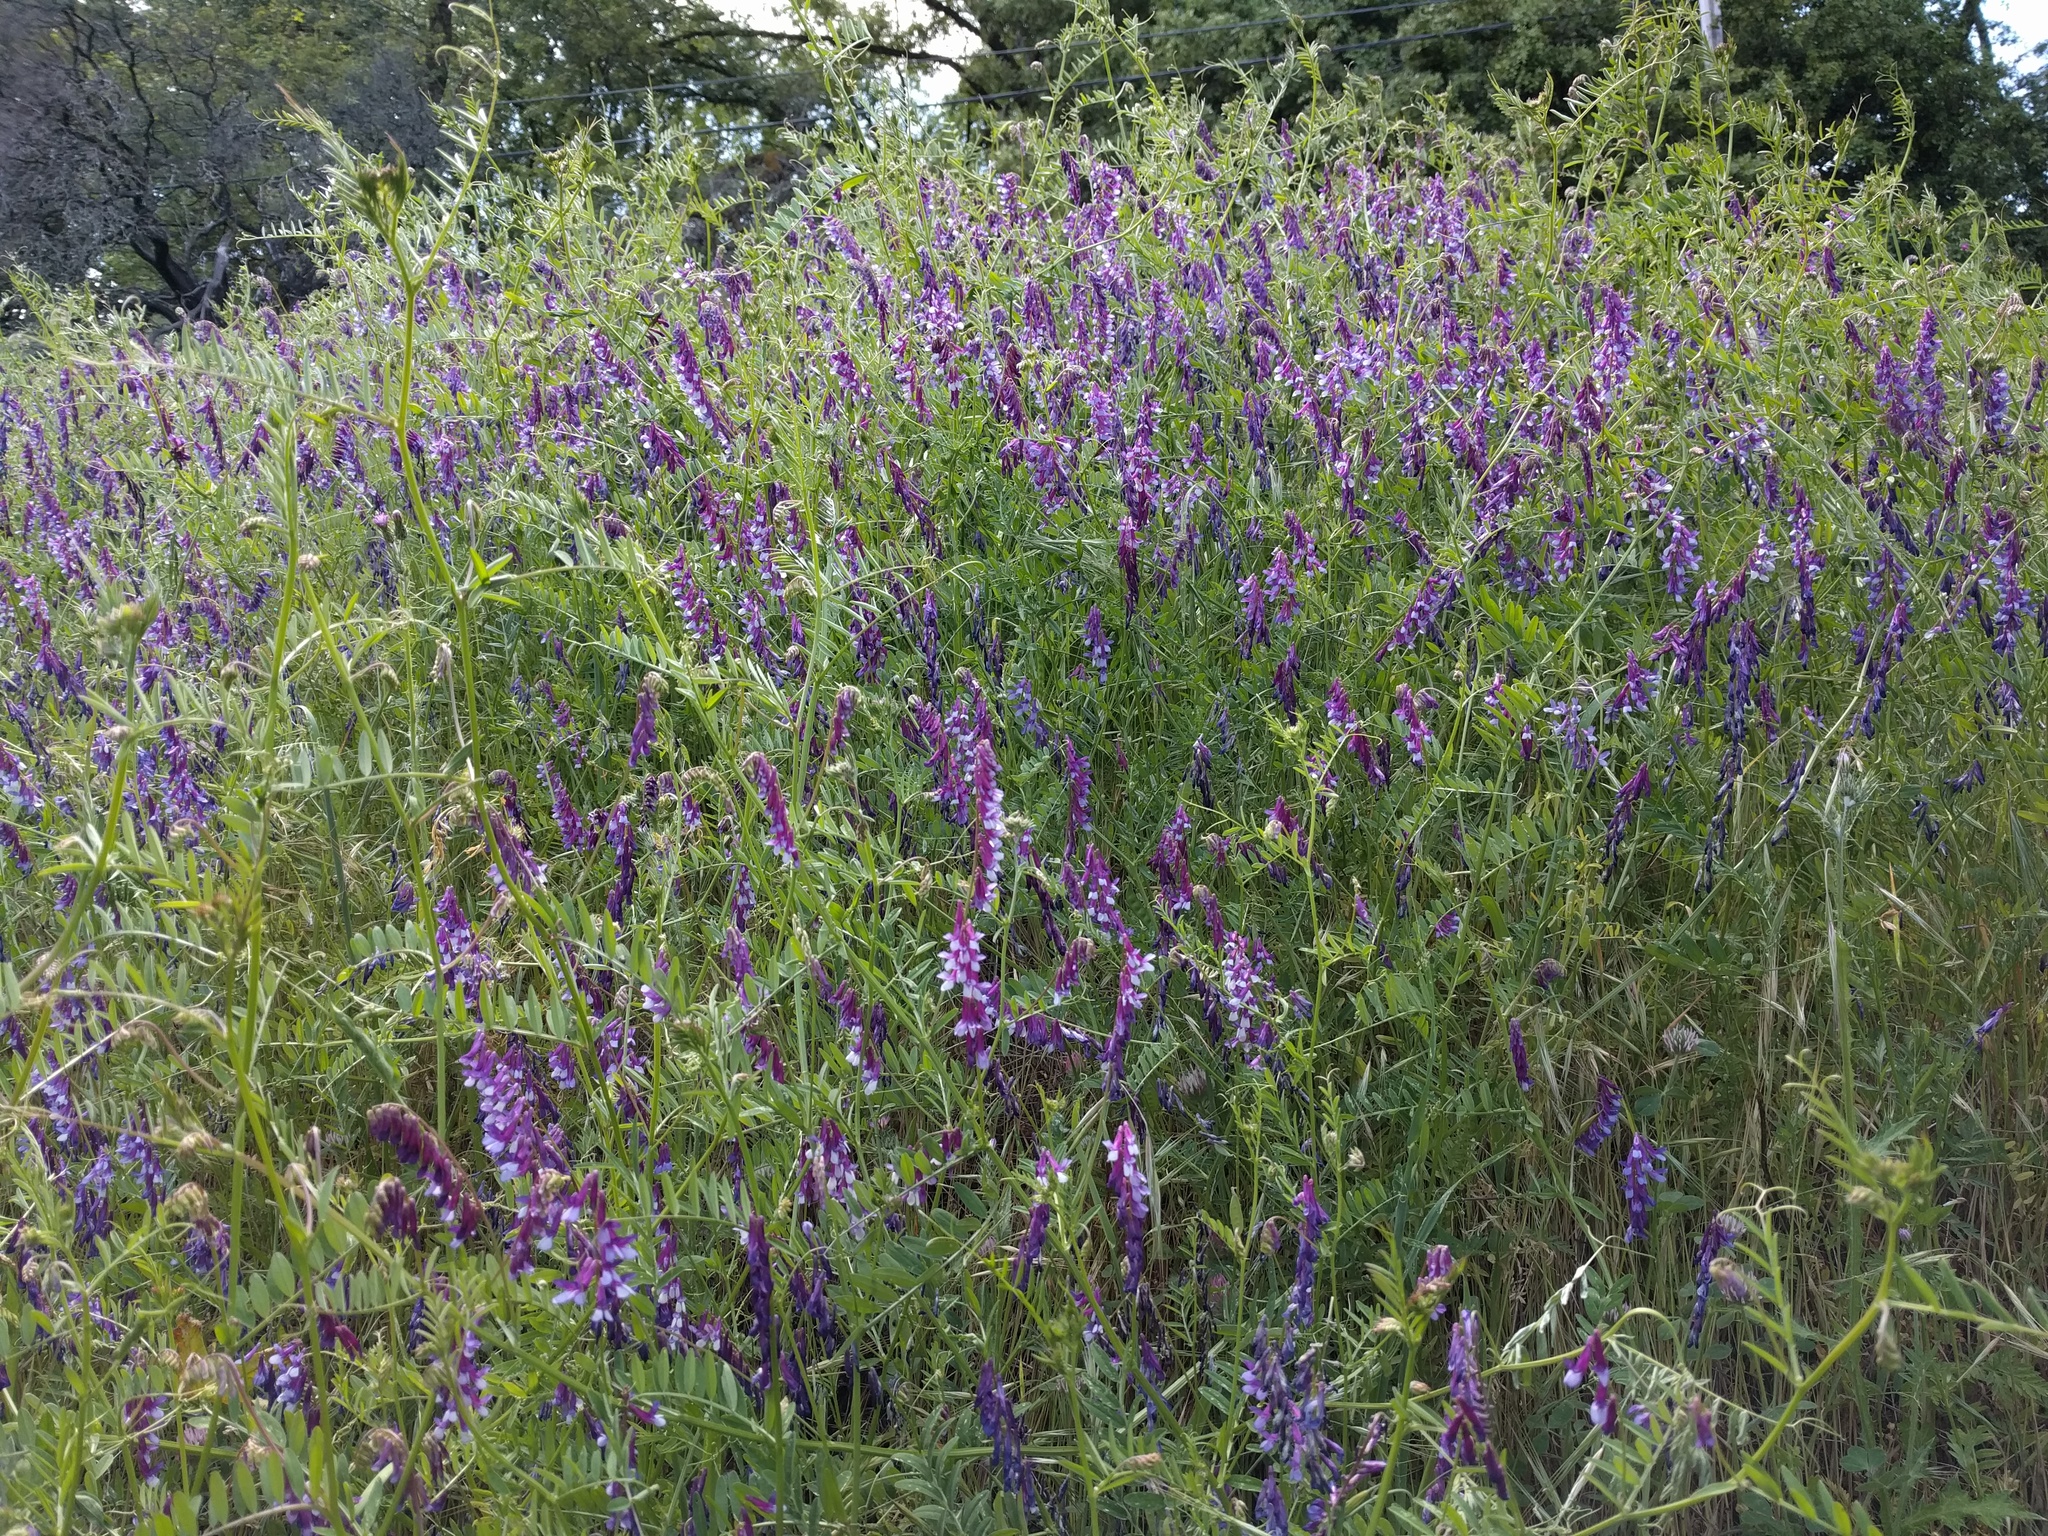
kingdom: Plantae
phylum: Tracheophyta
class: Magnoliopsida
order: Fabales
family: Fabaceae
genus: Vicia
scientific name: Vicia villosa
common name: Fodder vetch
